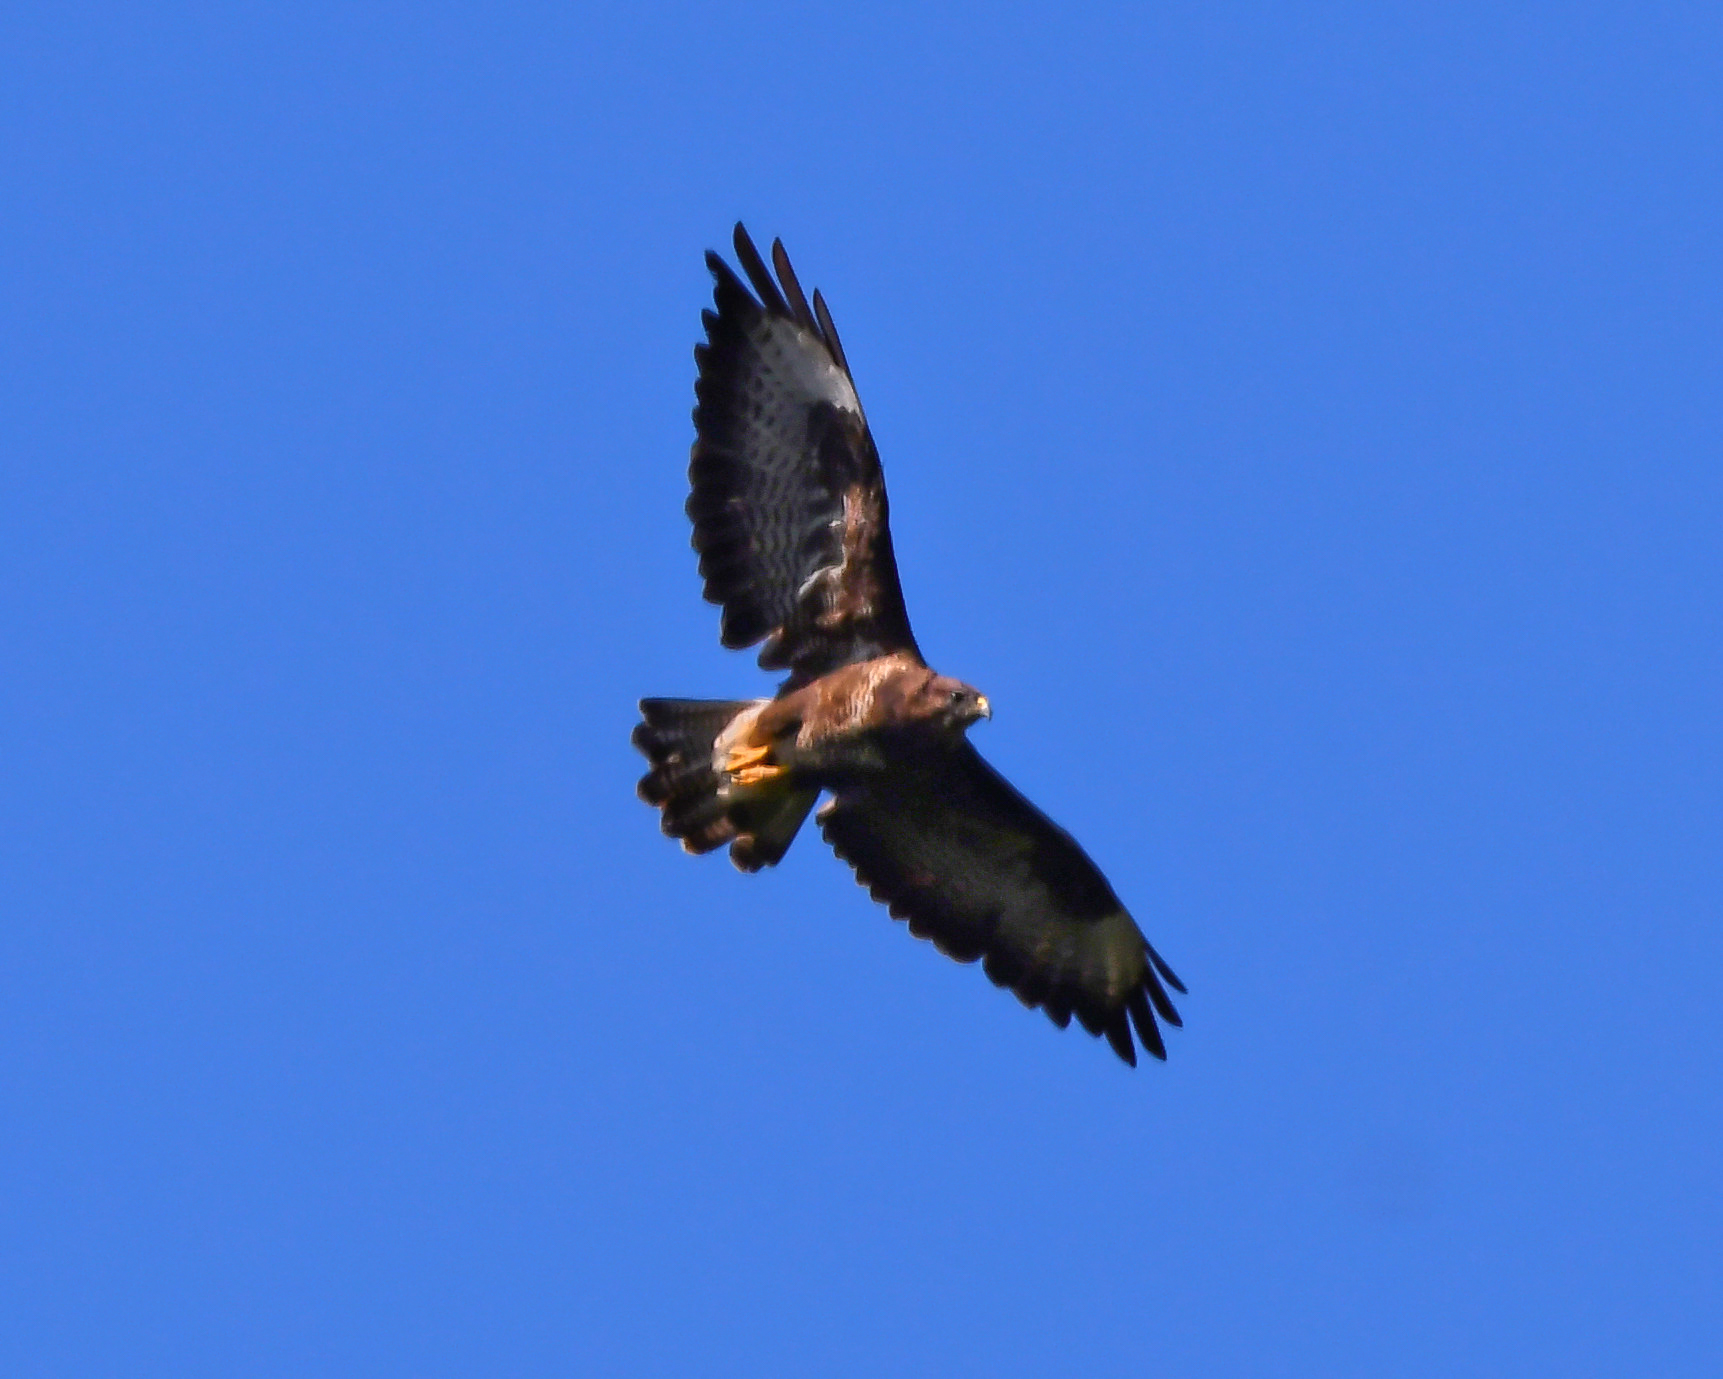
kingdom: Animalia
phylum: Chordata
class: Aves
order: Accipitriformes
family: Accipitridae
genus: Buteo
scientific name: Buteo buteo
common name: Common buzzard
